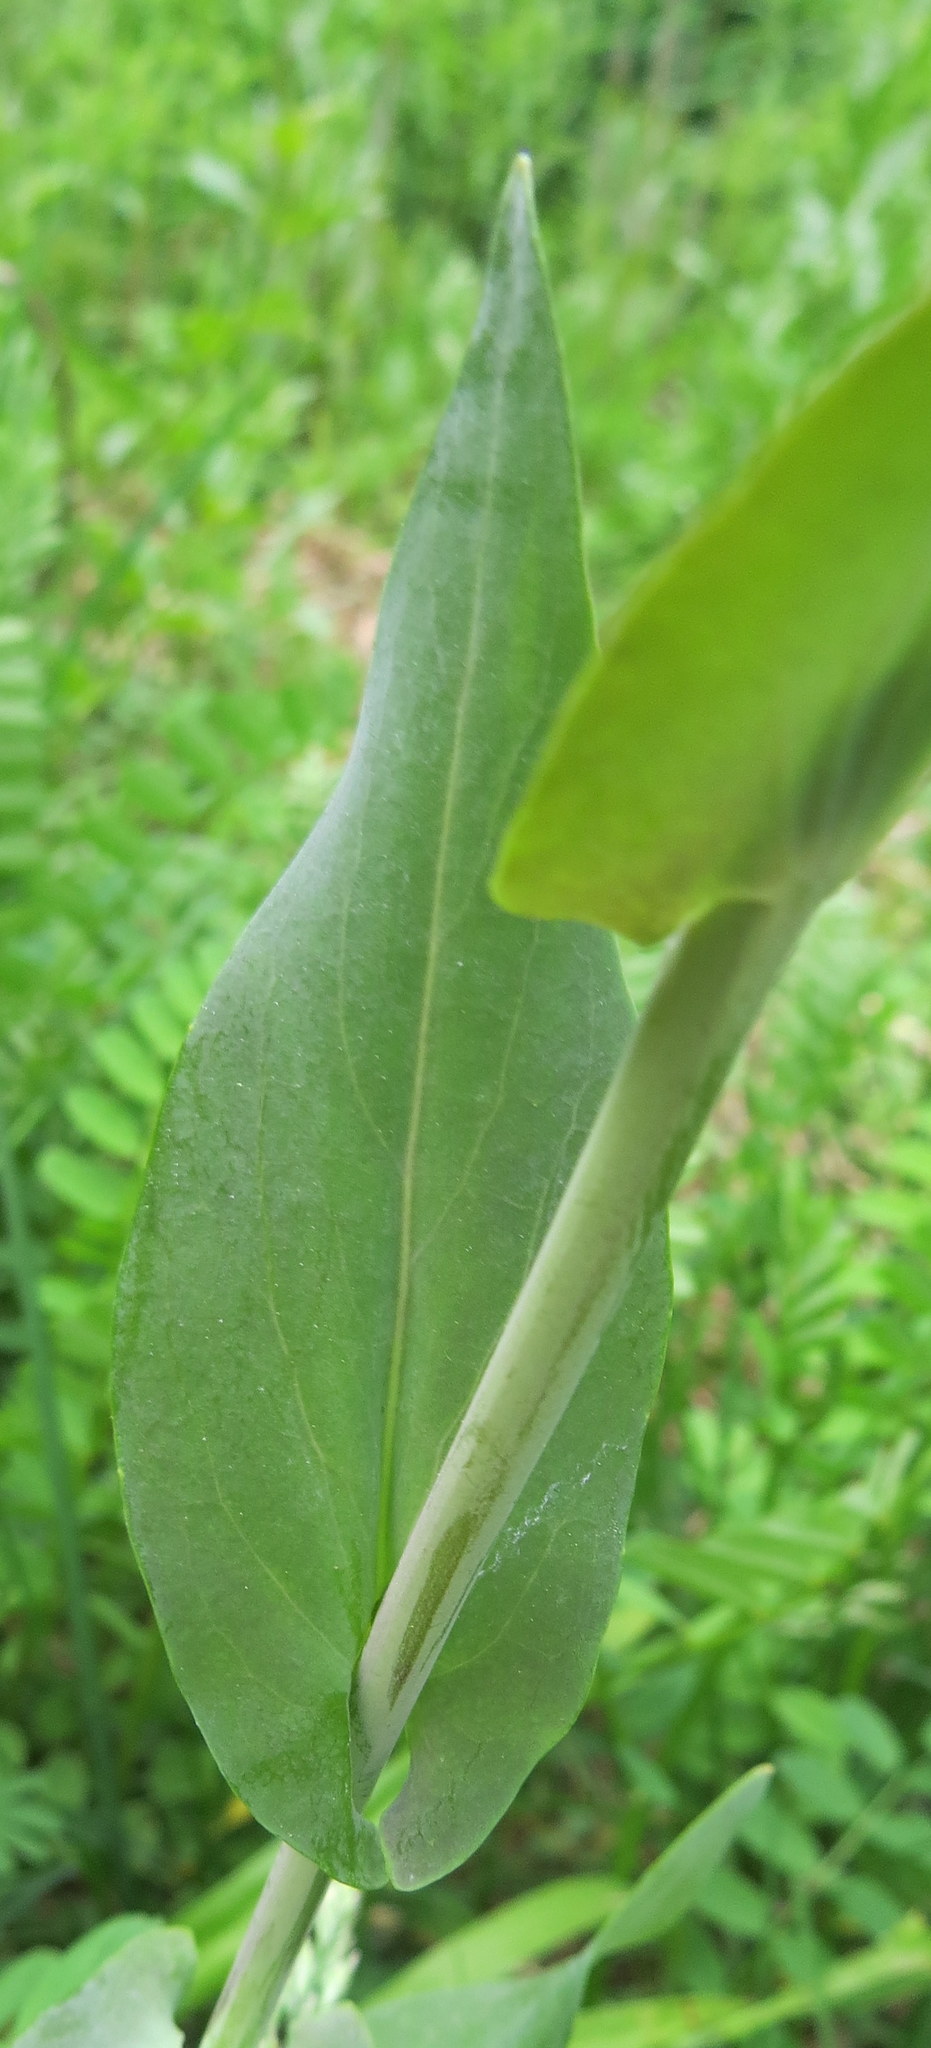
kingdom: Plantae
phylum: Tracheophyta
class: Magnoliopsida
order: Brassicales
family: Brassicaceae
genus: Turritis
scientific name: Turritis glabra
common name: Tower rockcress
